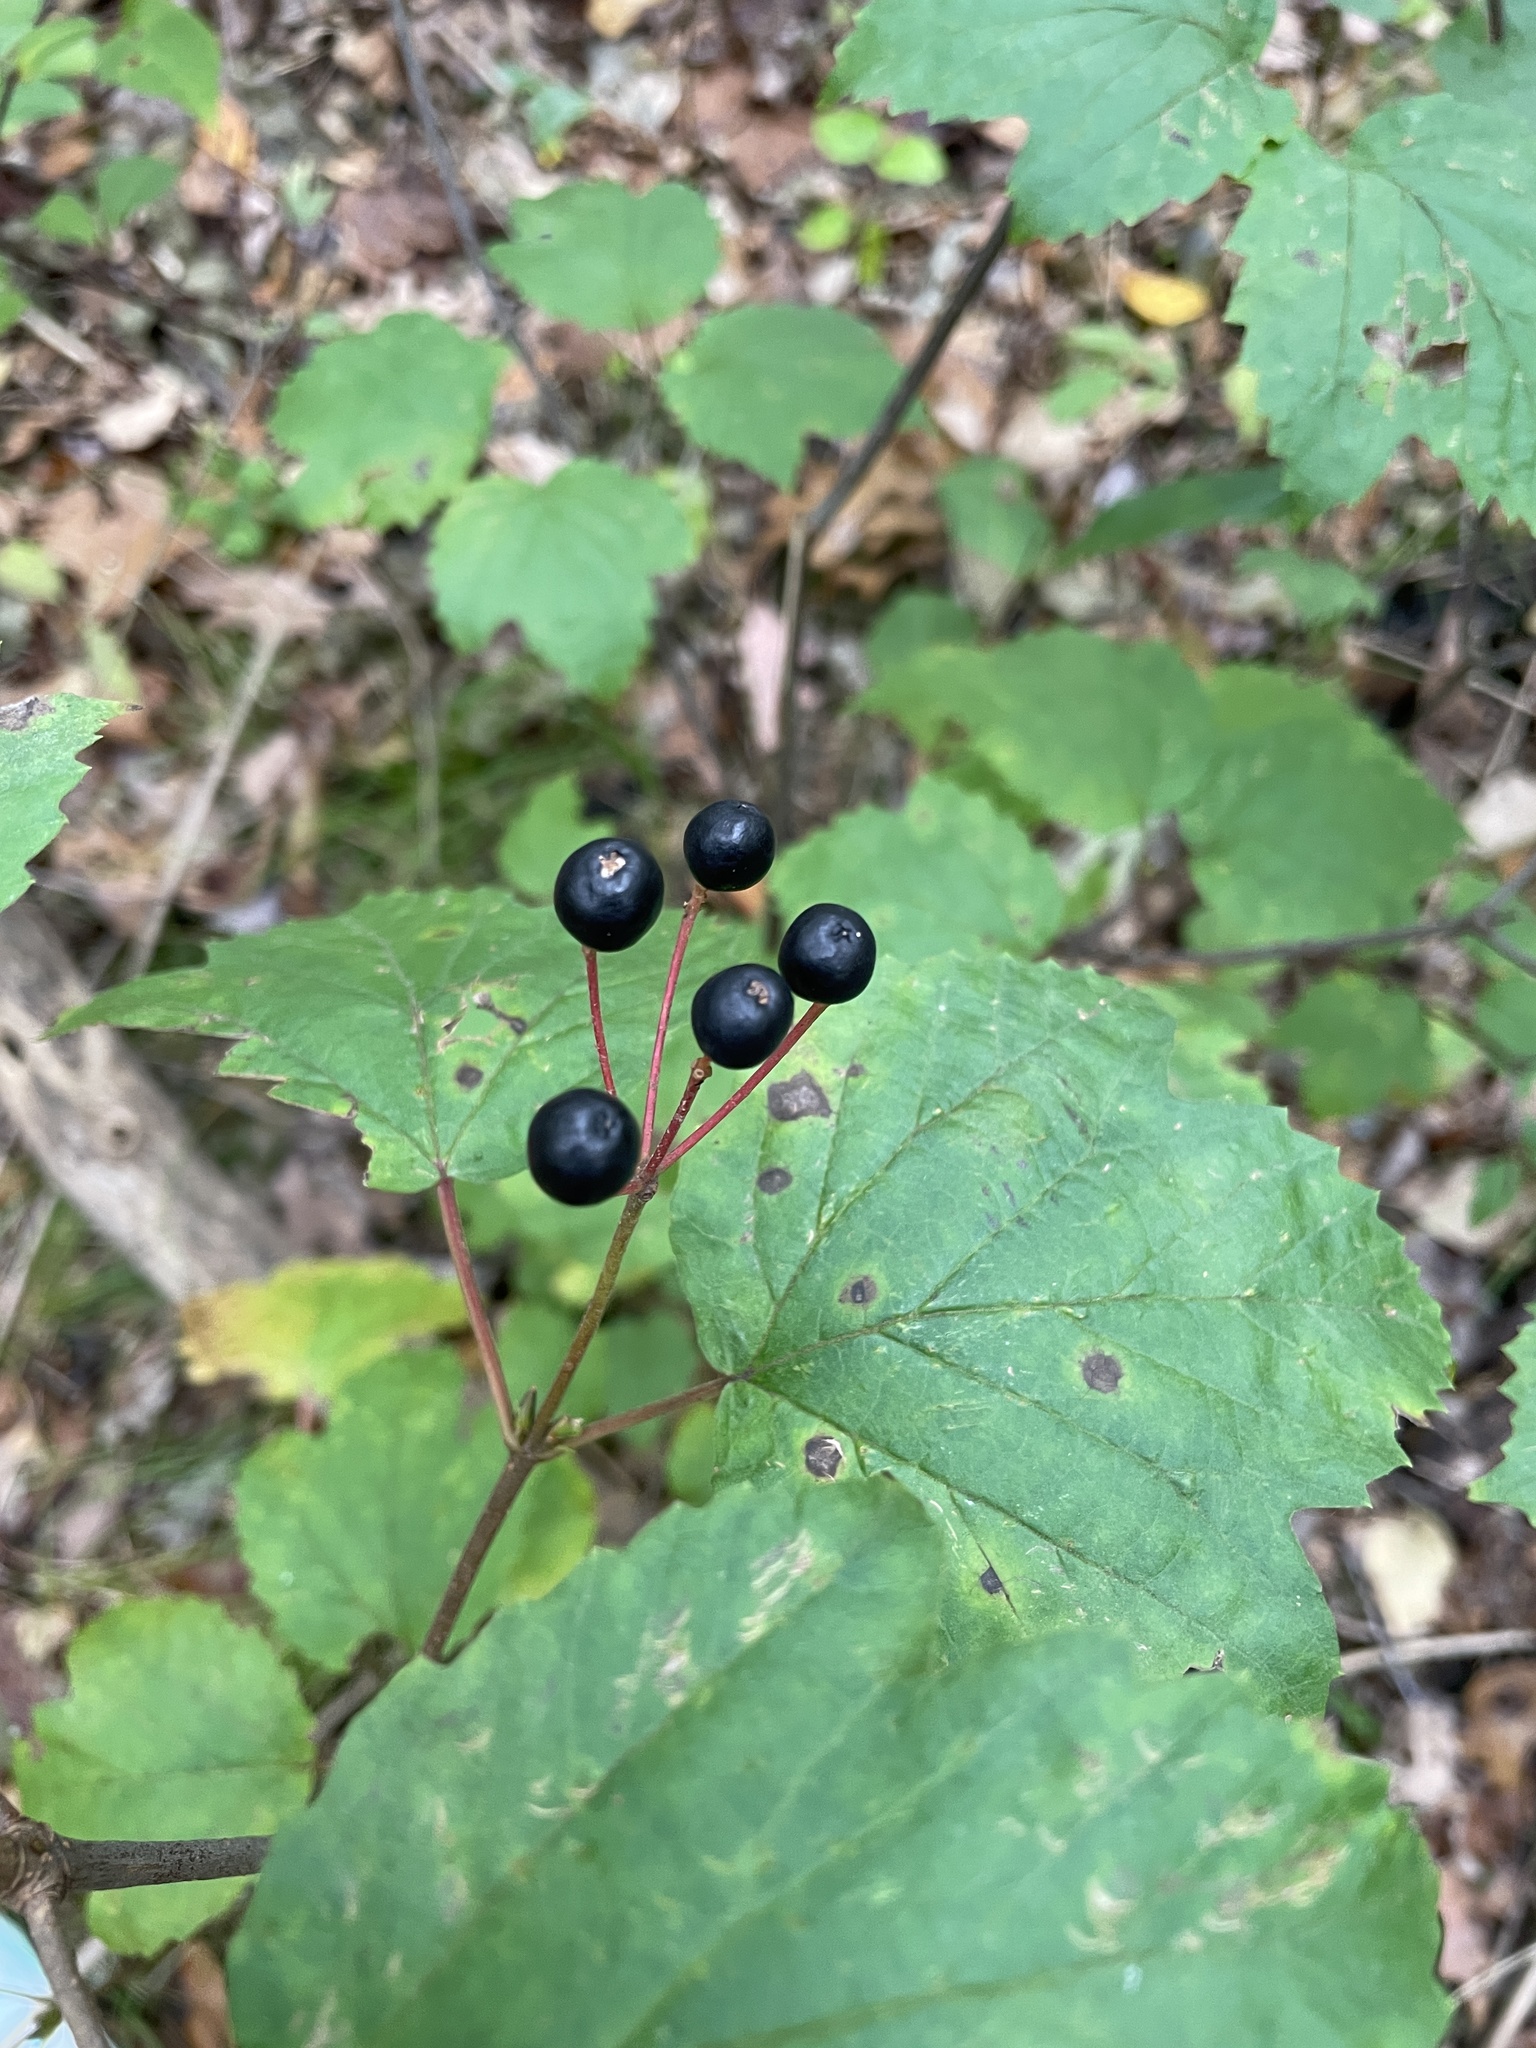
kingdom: Plantae
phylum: Tracheophyta
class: Magnoliopsida
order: Dipsacales
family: Viburnaceae
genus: Viburnum
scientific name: Viburnum acerifolium
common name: Dockmackie
